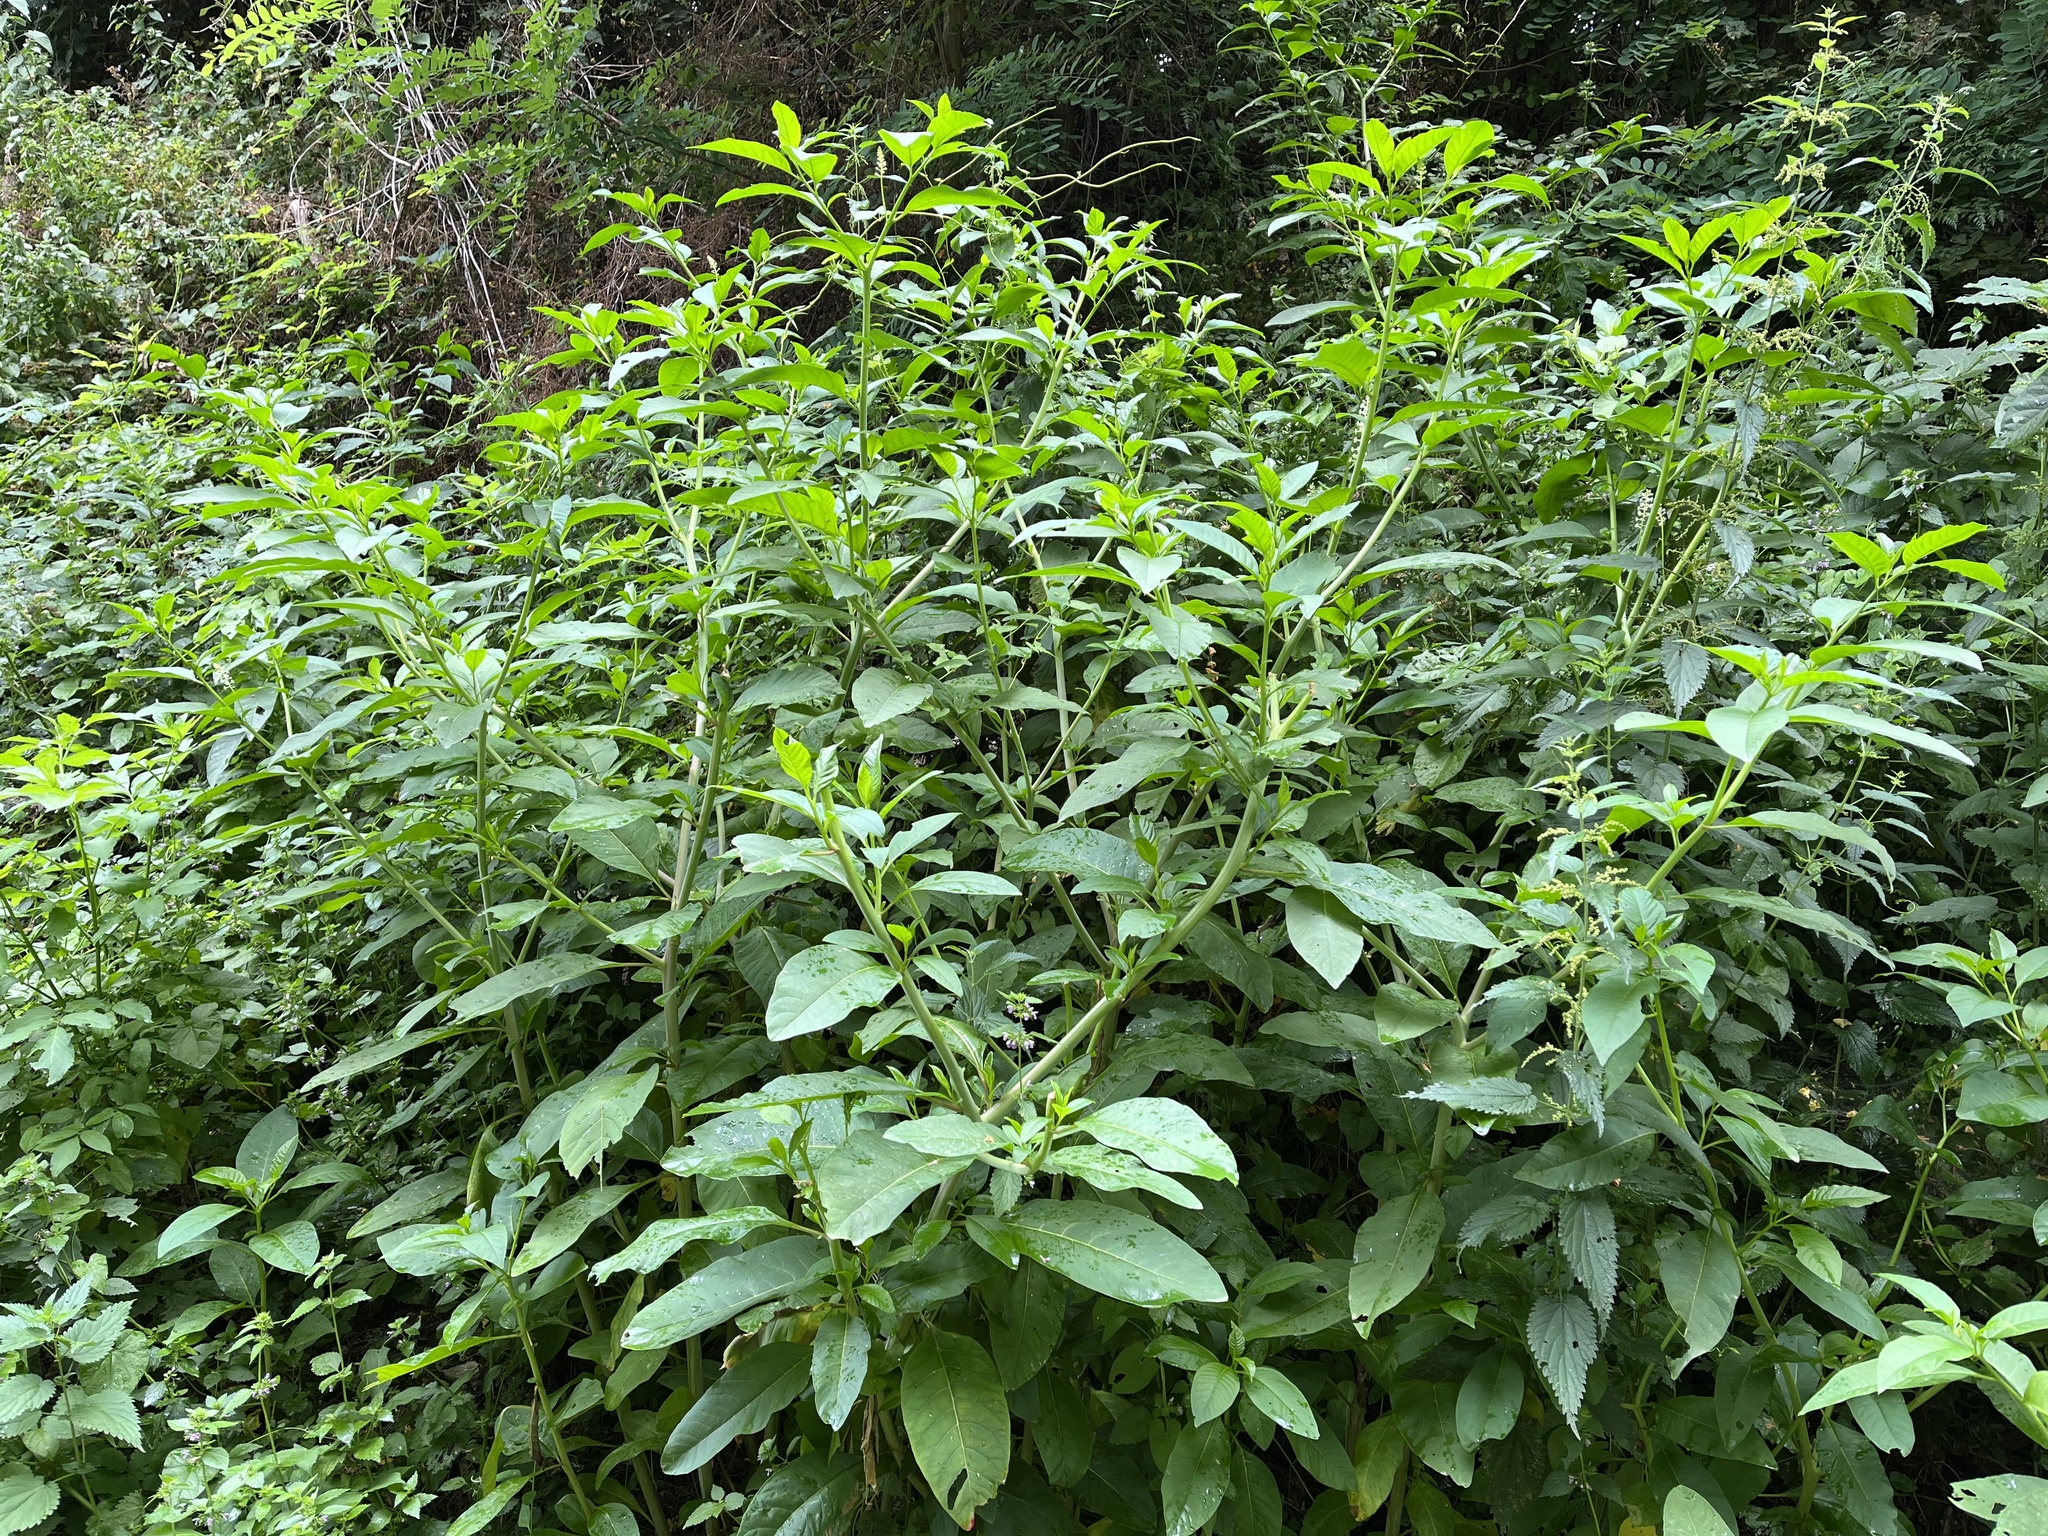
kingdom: Plantae
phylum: Tracheophyta
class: Magnoliopsida
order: Caryophyllales
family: Phytolaccaceae
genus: Phytolacca
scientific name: Phytolacca americana
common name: American pokeweed
